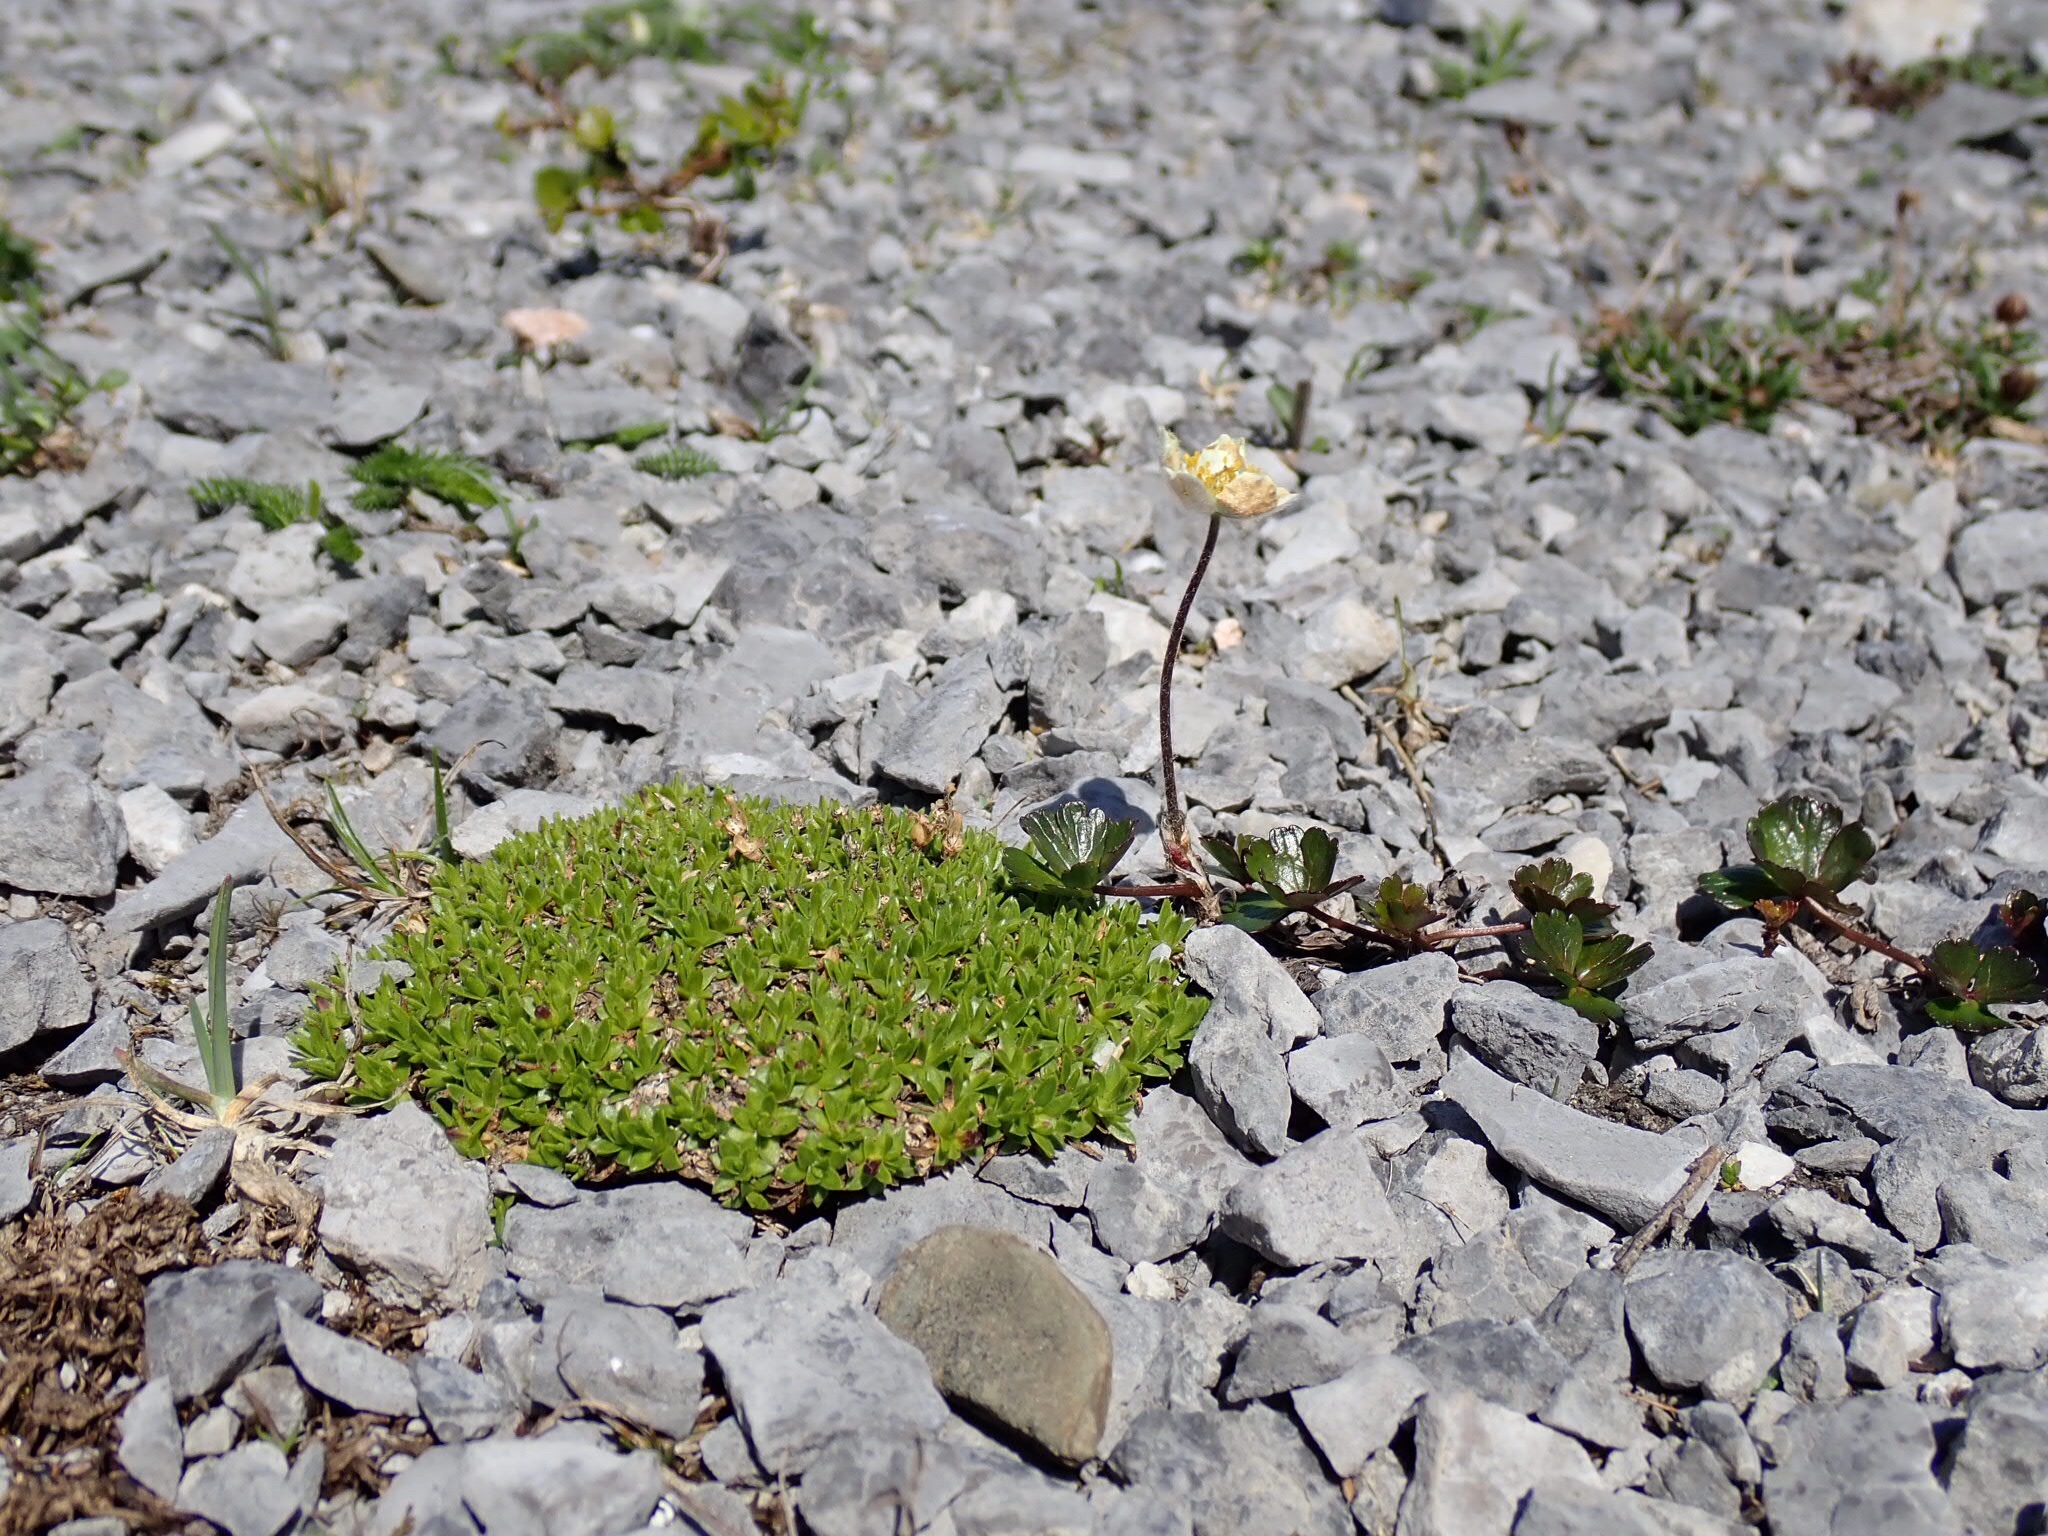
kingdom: Plantae
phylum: Tracheophyta
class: Magnoliopsida
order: Ranunculales
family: Ranunculaceae
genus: Anemone
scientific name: Anemone parviflora
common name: Northern anemone
